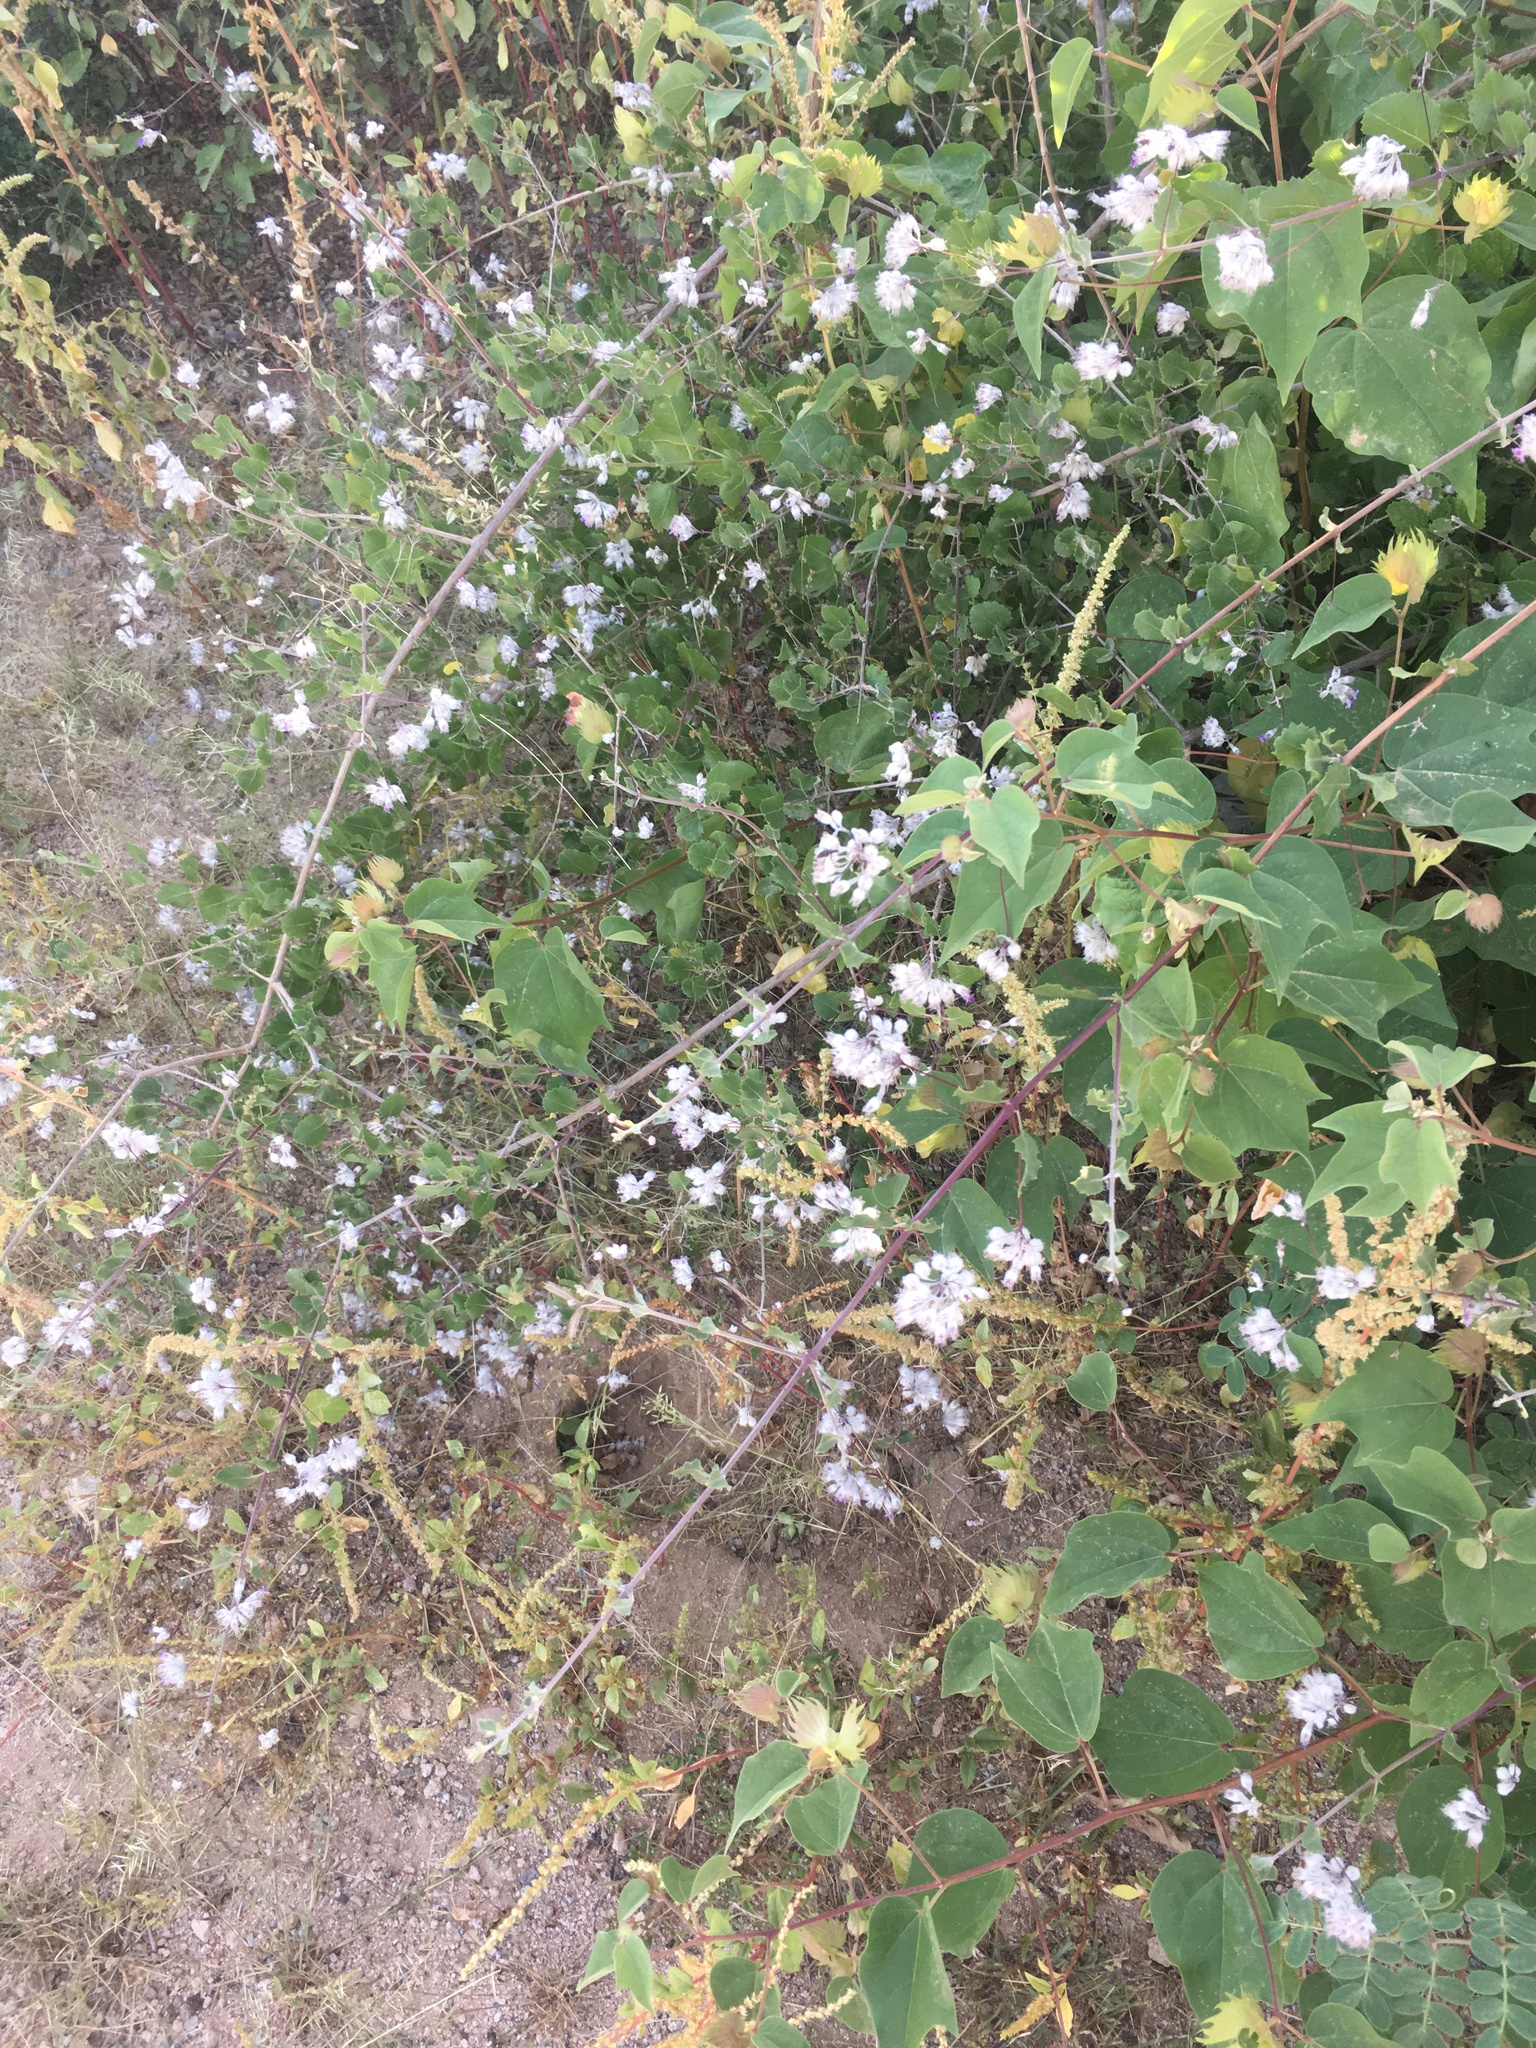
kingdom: Plantae
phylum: Tracheophyta
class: Magnoliopsida
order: Lamiales
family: Lamiaceae
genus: Condea
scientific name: Condea laniflora
